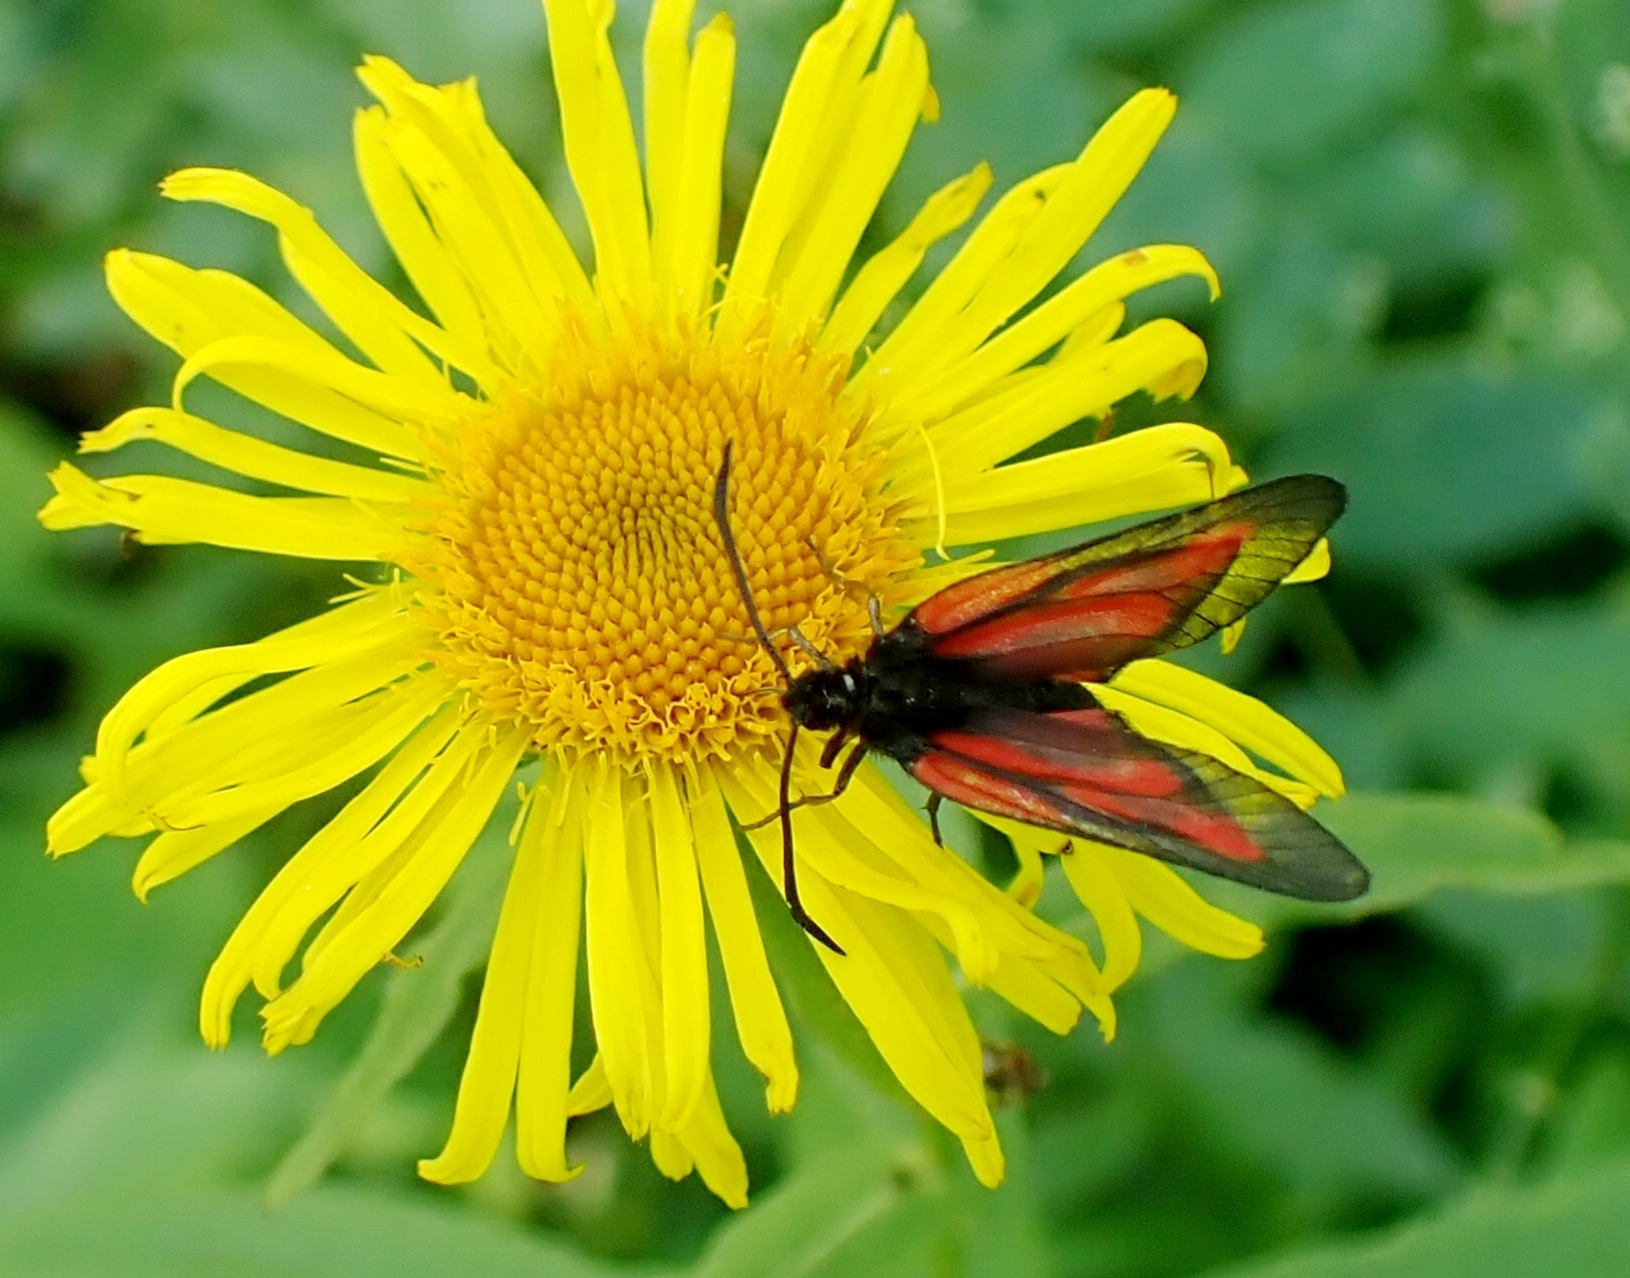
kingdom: Animalia
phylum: Arthropoda
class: Insecta
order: Lepidoptera
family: Zygaenidae
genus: Zygaena
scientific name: Zygaena osterodensis
